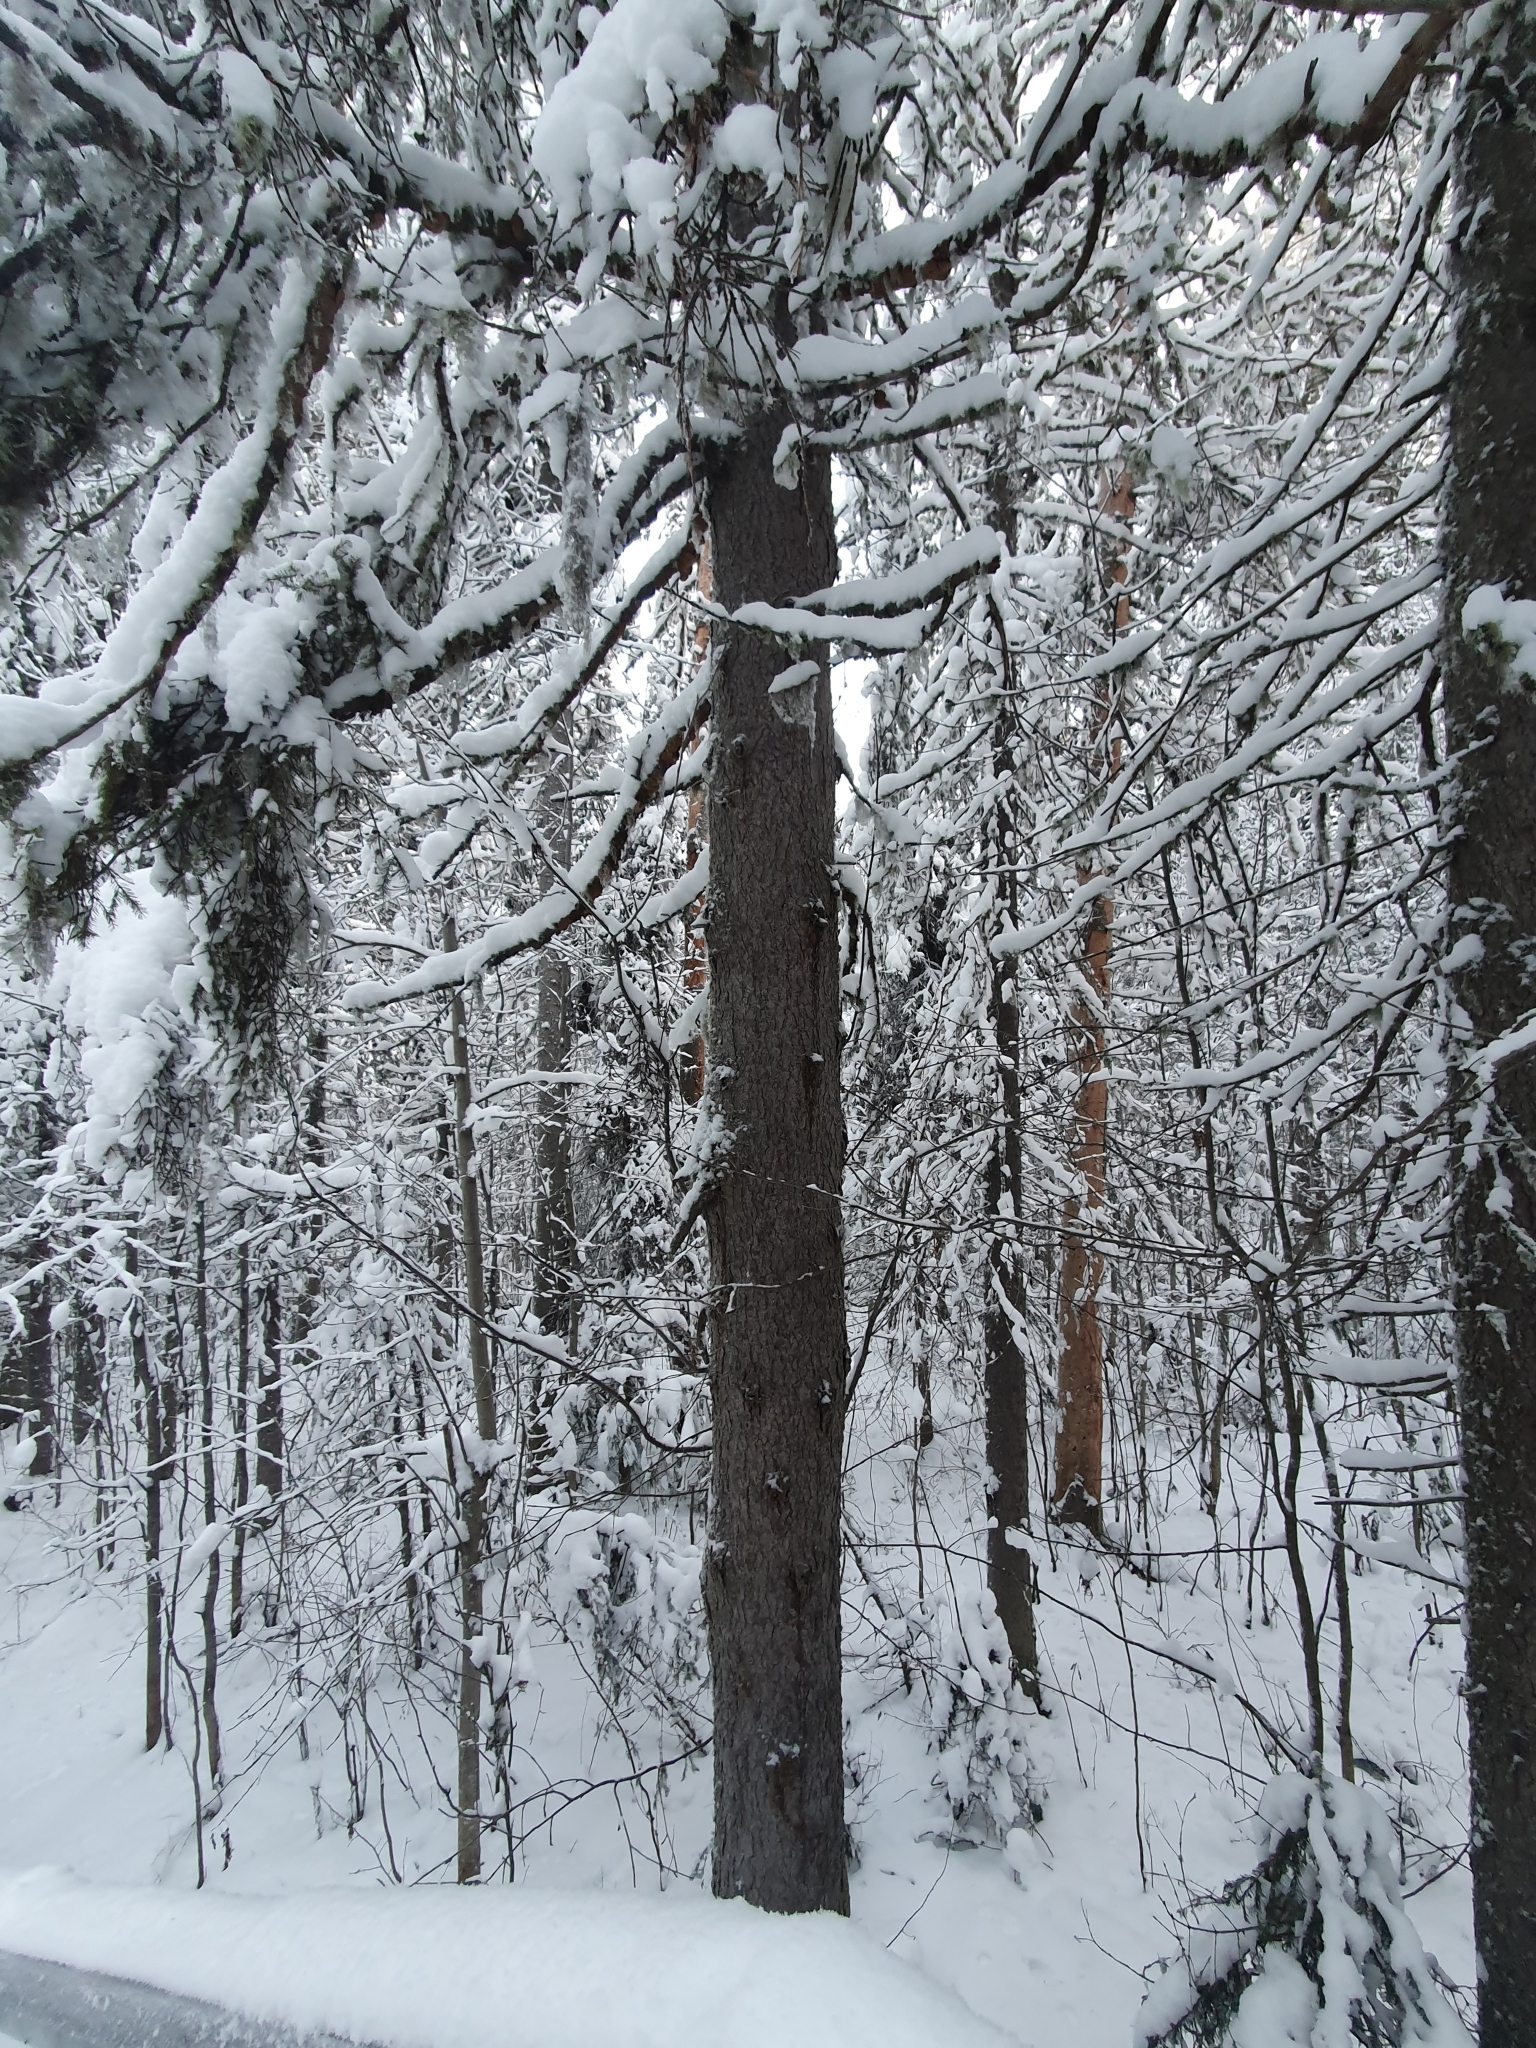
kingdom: Plantae
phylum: Tracheophyta
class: Pinopsida
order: Pinales
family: Pinaceae
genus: Picea
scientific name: Picea obovata
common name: Siberian spruce
